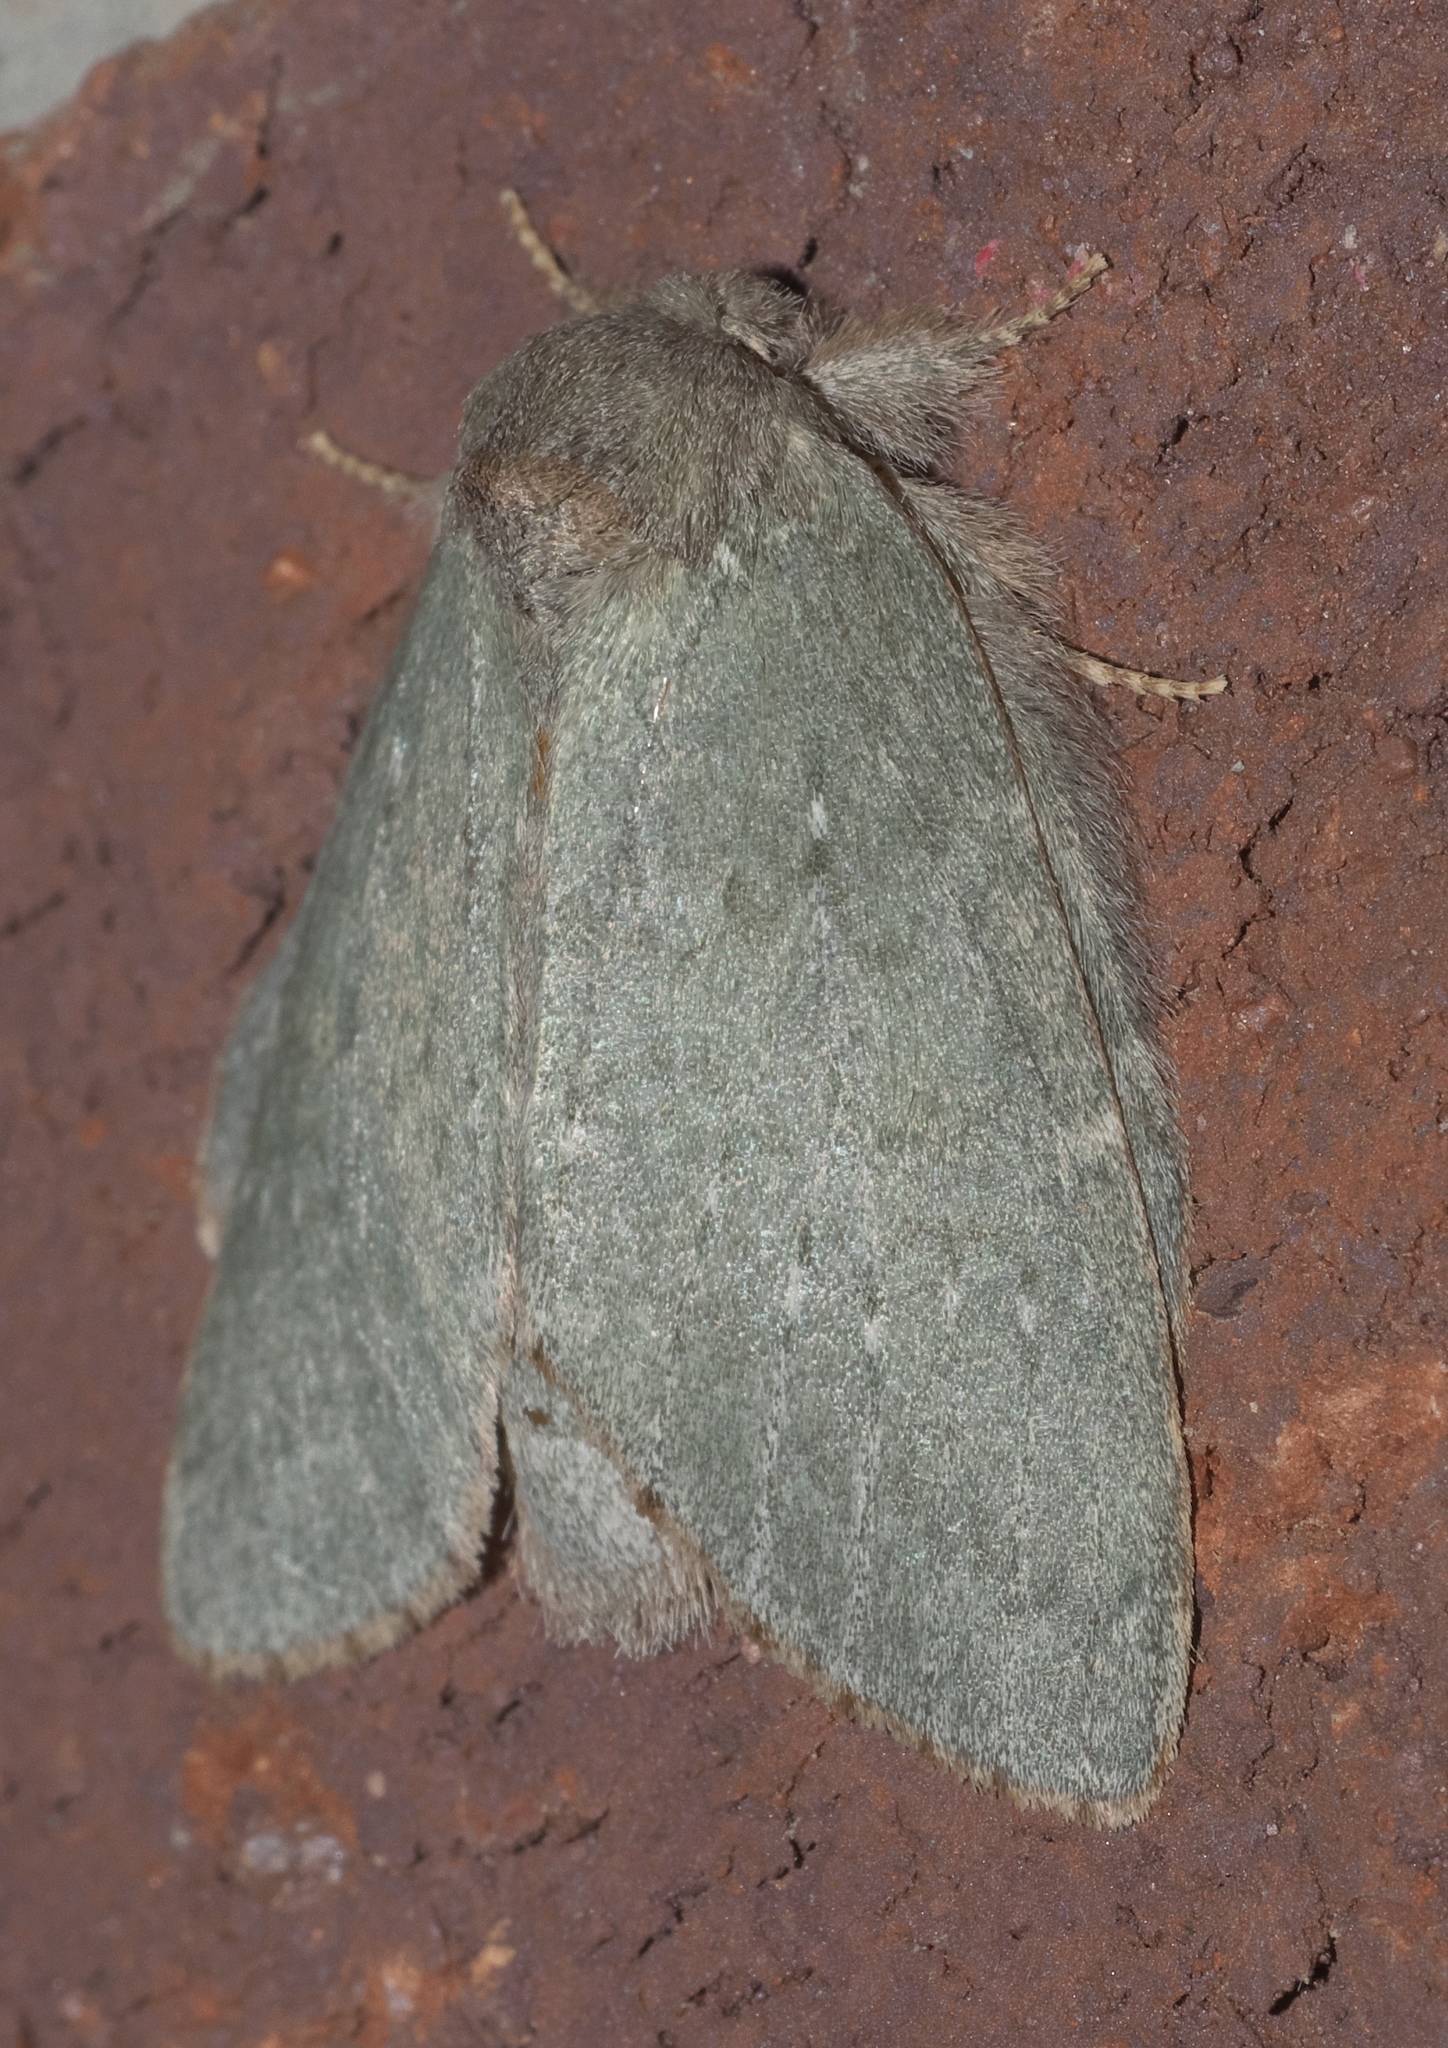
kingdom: Animalia
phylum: Arthropoda
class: Insecta
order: Lepidoptera
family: Notodontidae
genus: Misogada
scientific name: Misogada unicolor
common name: Drab prominent
